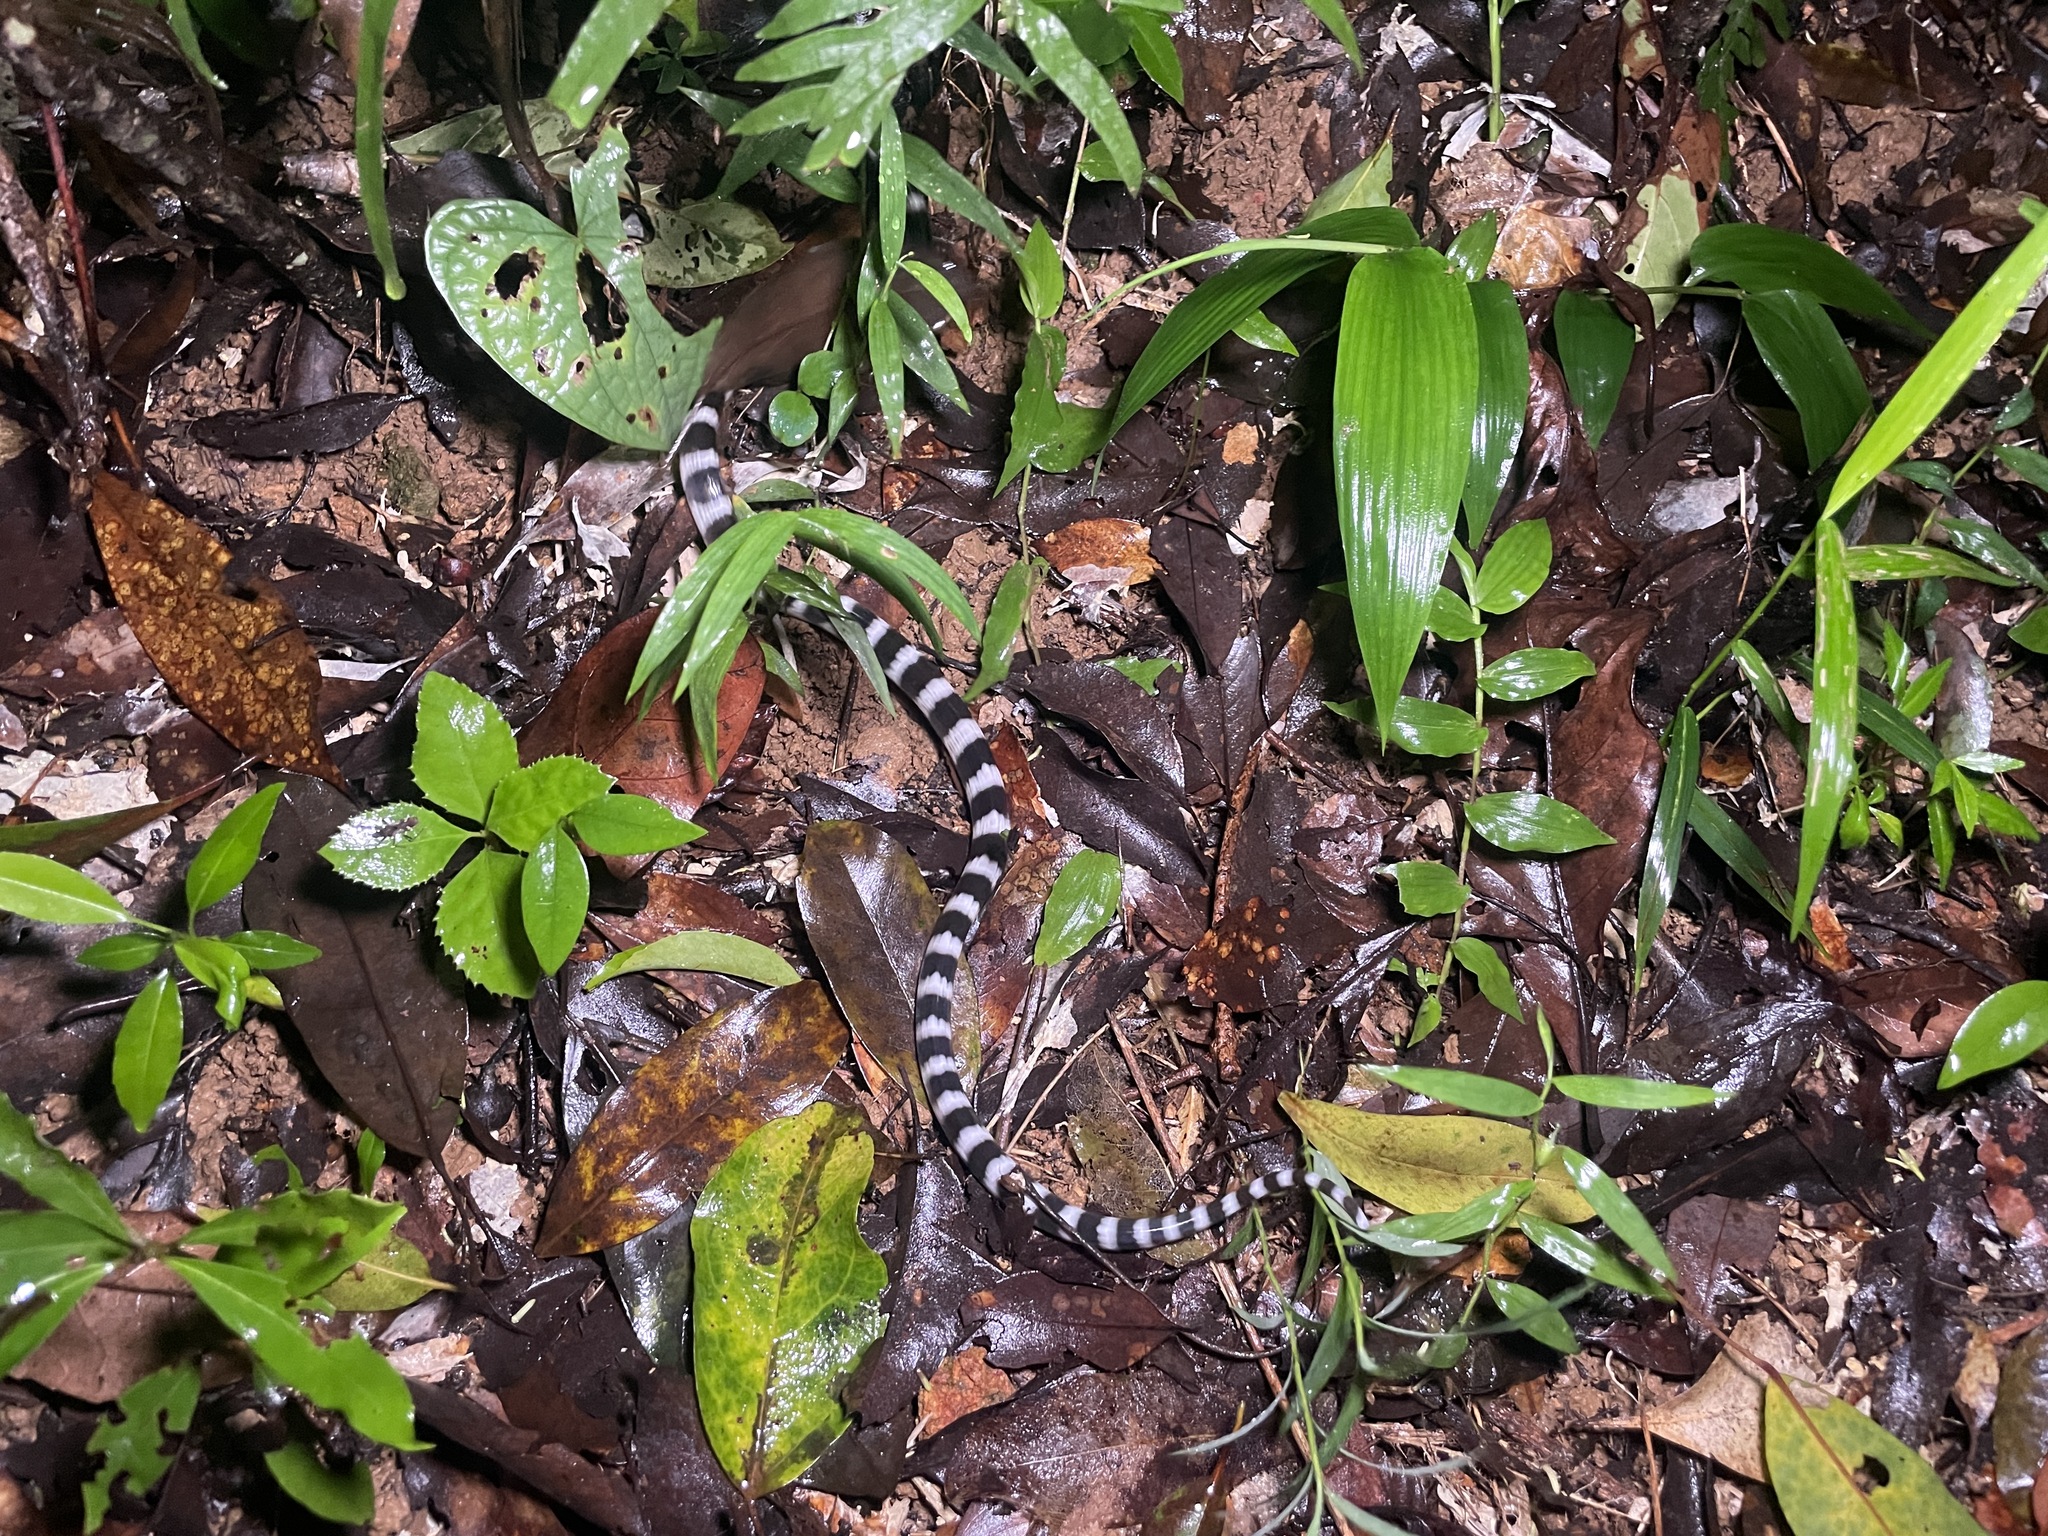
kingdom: Animalia
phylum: Chordata
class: Squamata
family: Elapidae
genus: Bungarus
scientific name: Bungarus multicinctus
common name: Many-banded krait
